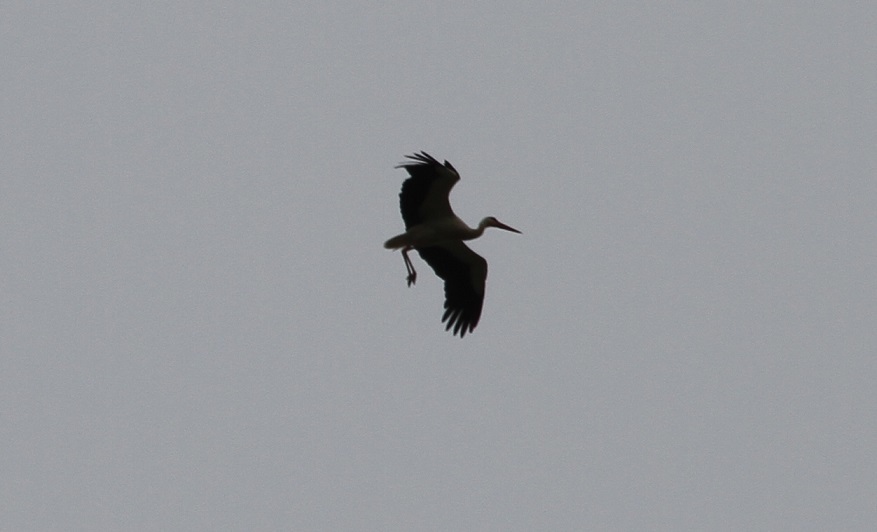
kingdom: Animalia
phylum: Chordata
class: Aves
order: Ciconiiformes
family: Ciconiidae
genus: Ciconia
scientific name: Ciconia ciconia
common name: White stork
